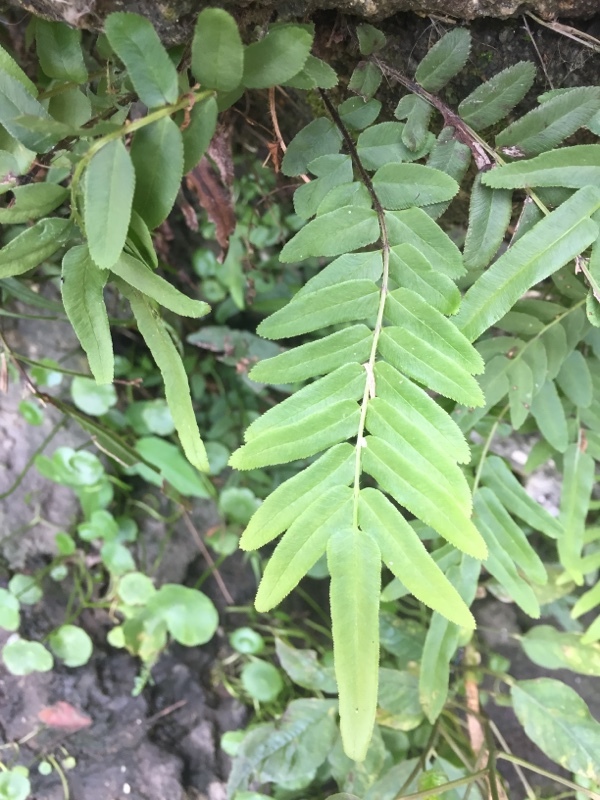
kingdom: Plantae
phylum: Tracheophyta
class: Polypodiopsida
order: Polypodiales
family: Pteridaceae
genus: Pteris
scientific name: Pteris vittata
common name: Ladder brake
